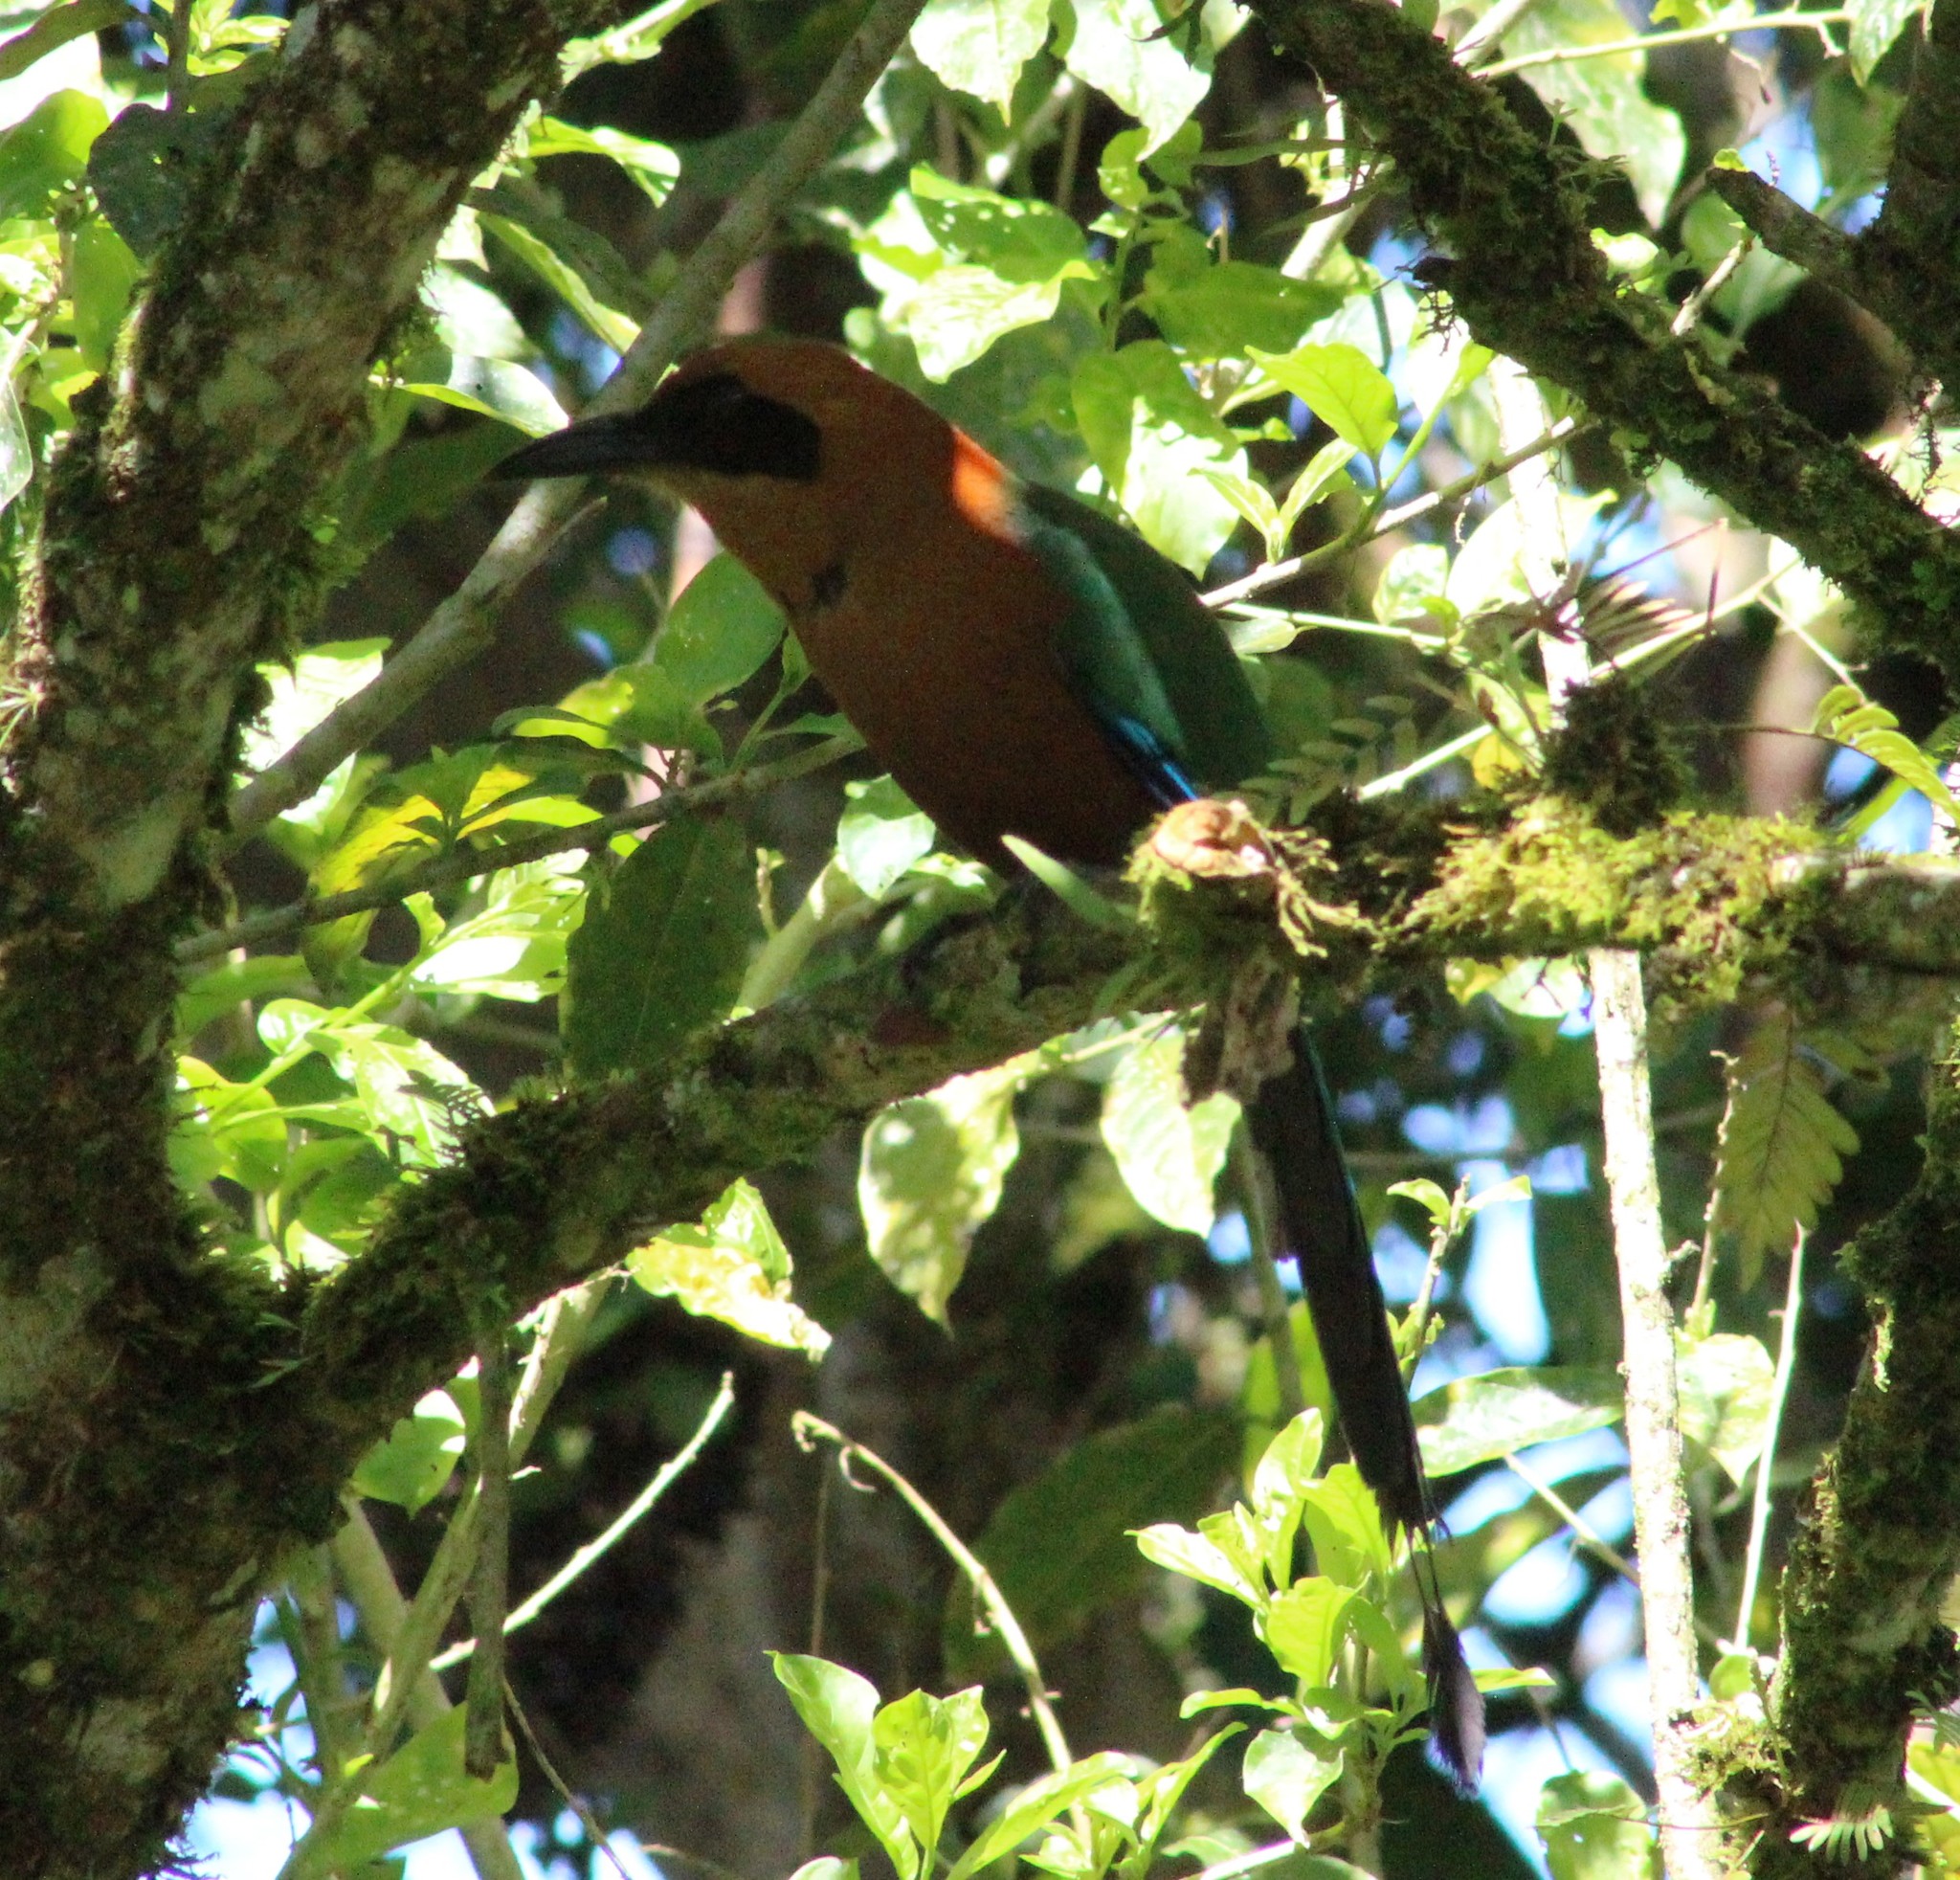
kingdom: Animalia
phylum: Chordata
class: Aves
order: Coraciiformes
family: Momotidae
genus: Baryphthengus
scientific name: Baryphthengus martii
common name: Rufous motmot
